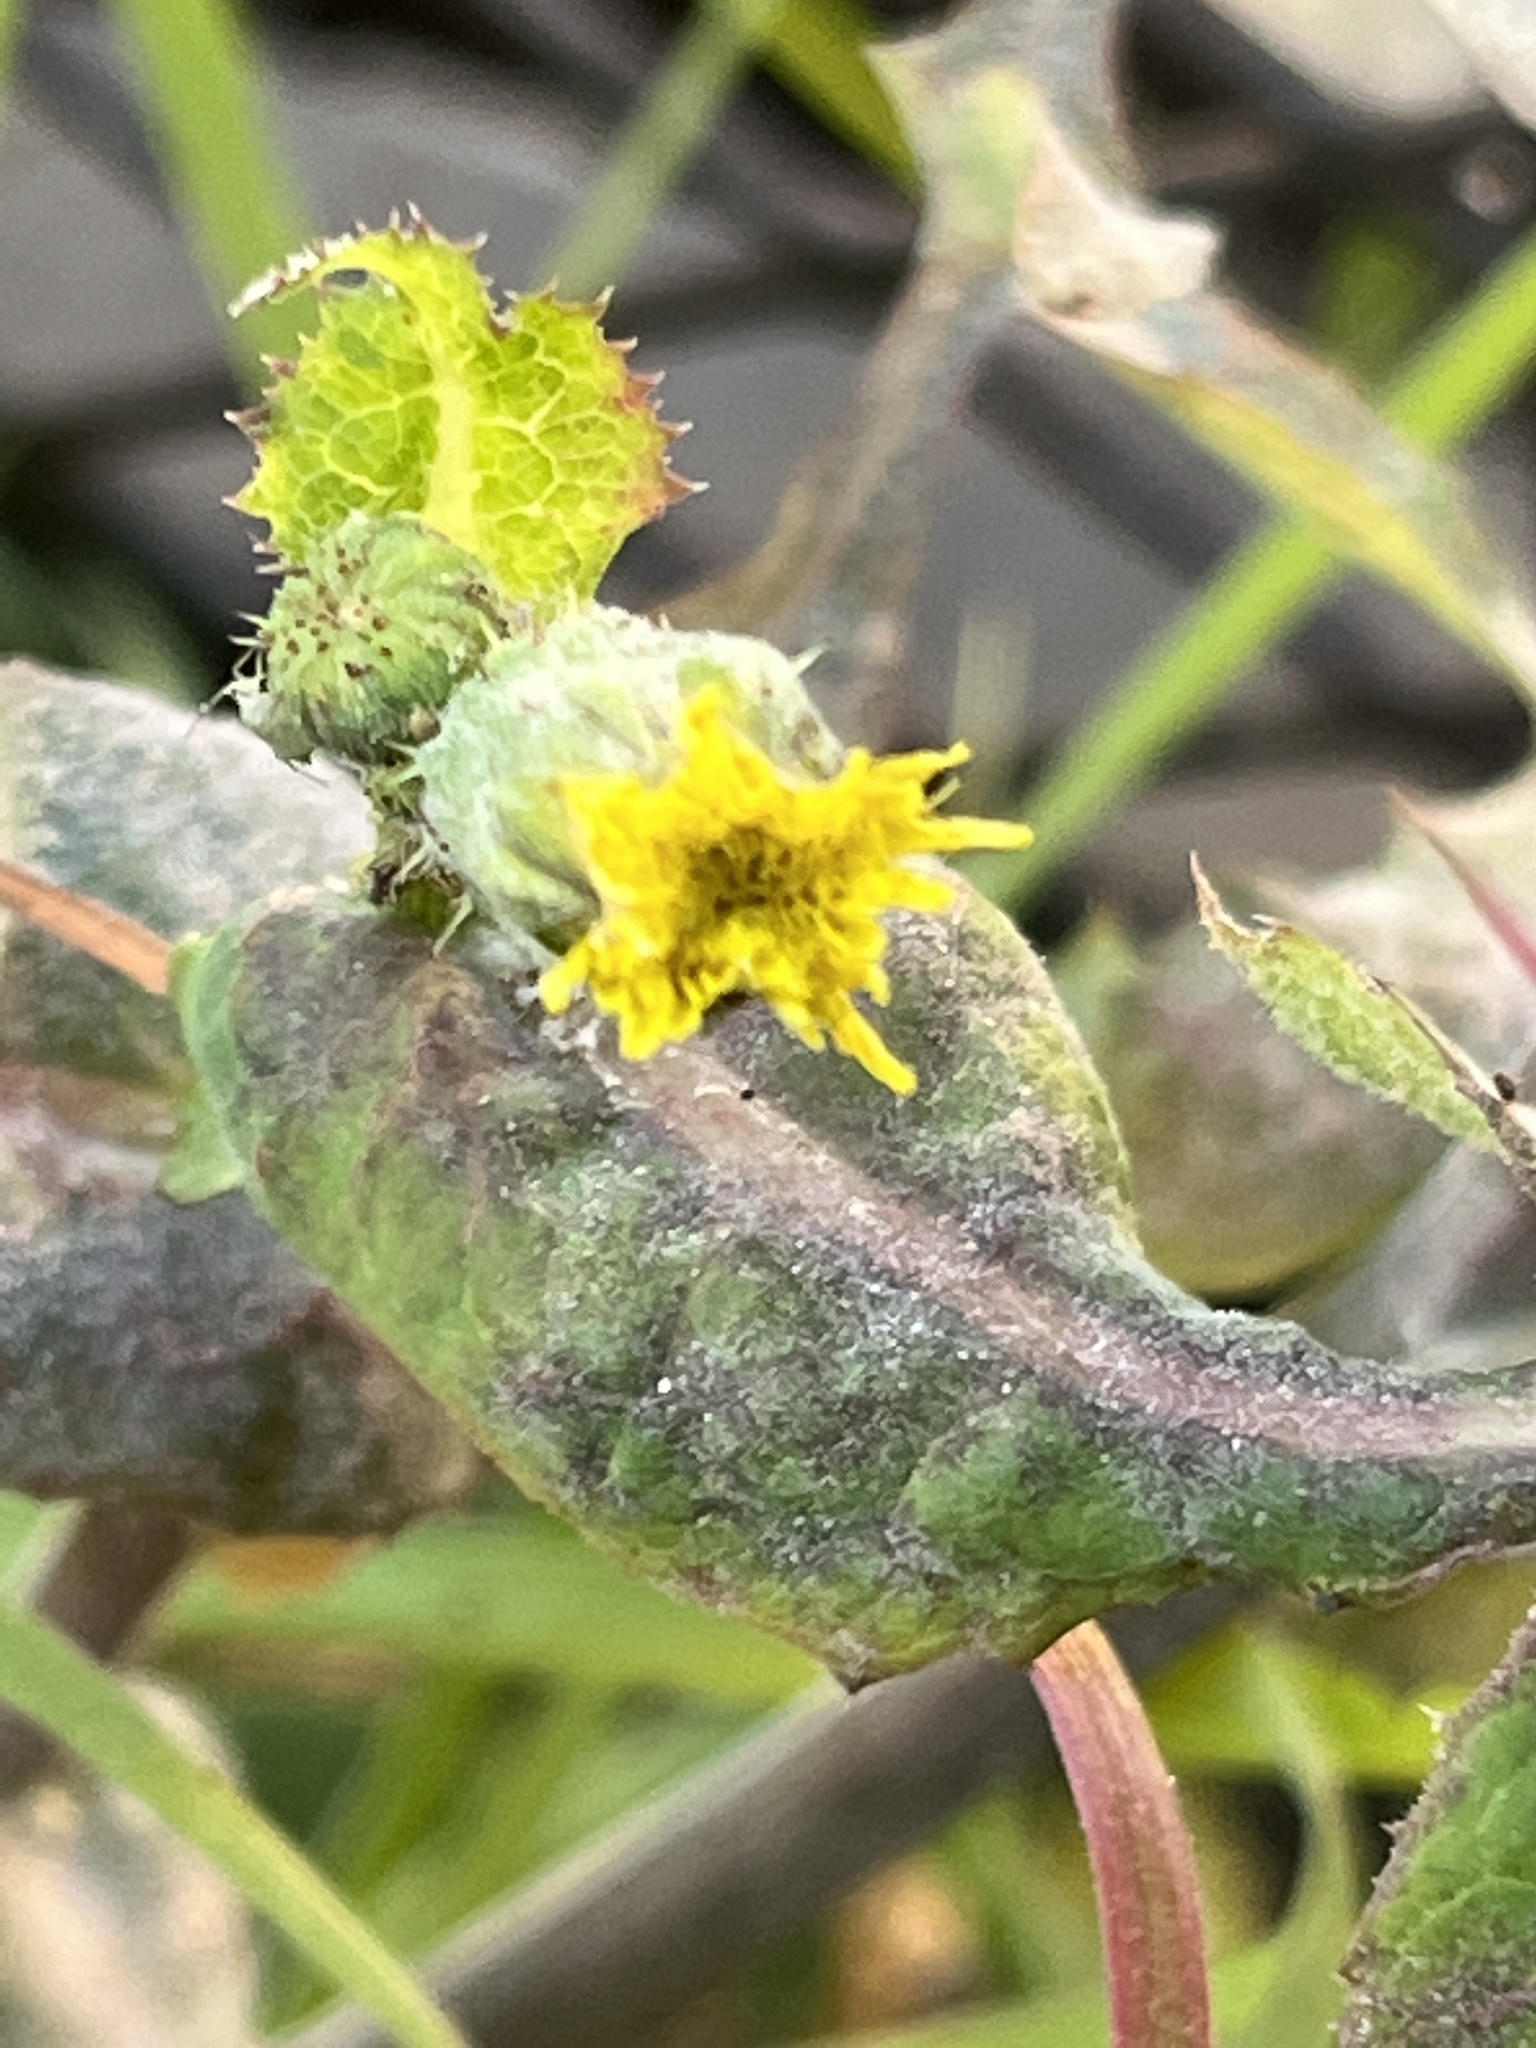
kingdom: Plantae
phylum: Tracheophyta
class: Magnoliopsida
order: Asterales
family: Asteraceae
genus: Sonchus
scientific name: Sonchus oleraceus
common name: Common sowthistle
